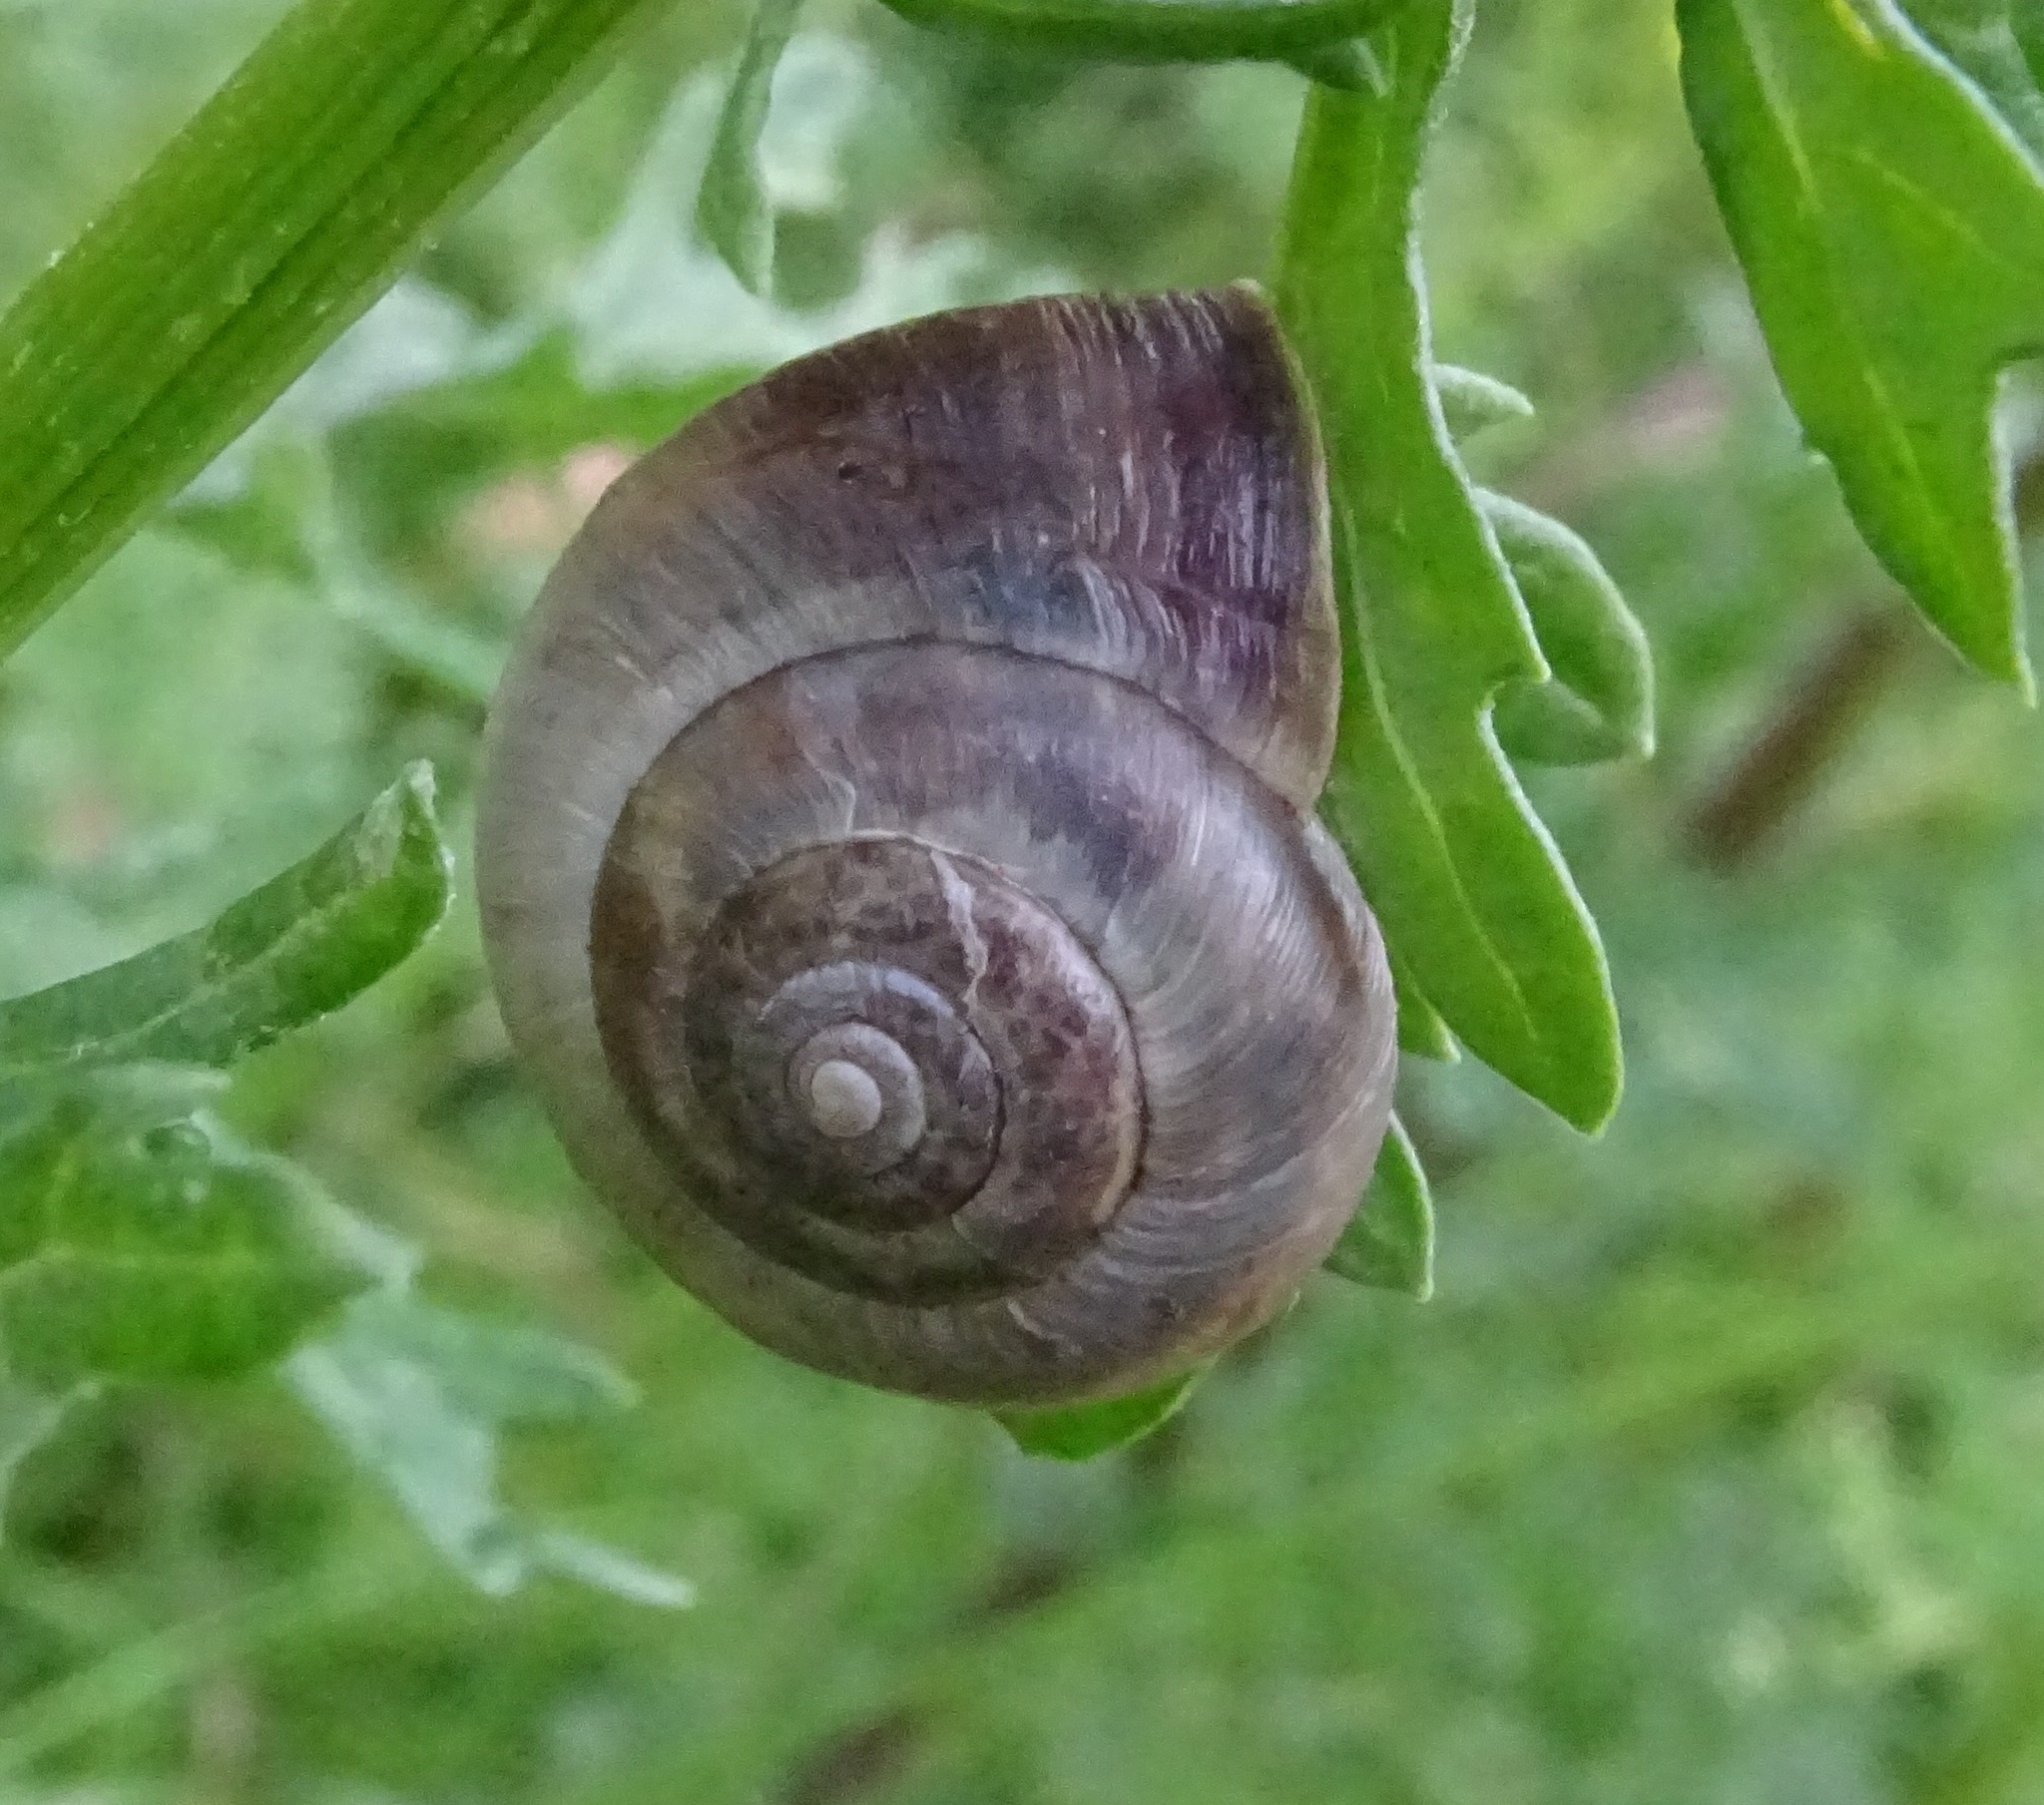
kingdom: Animalia
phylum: Mollusca
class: Gastropoda
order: Stylommatophora
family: Hygromiidae
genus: Monacha
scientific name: Monacha cantiana
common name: Kentish snail
